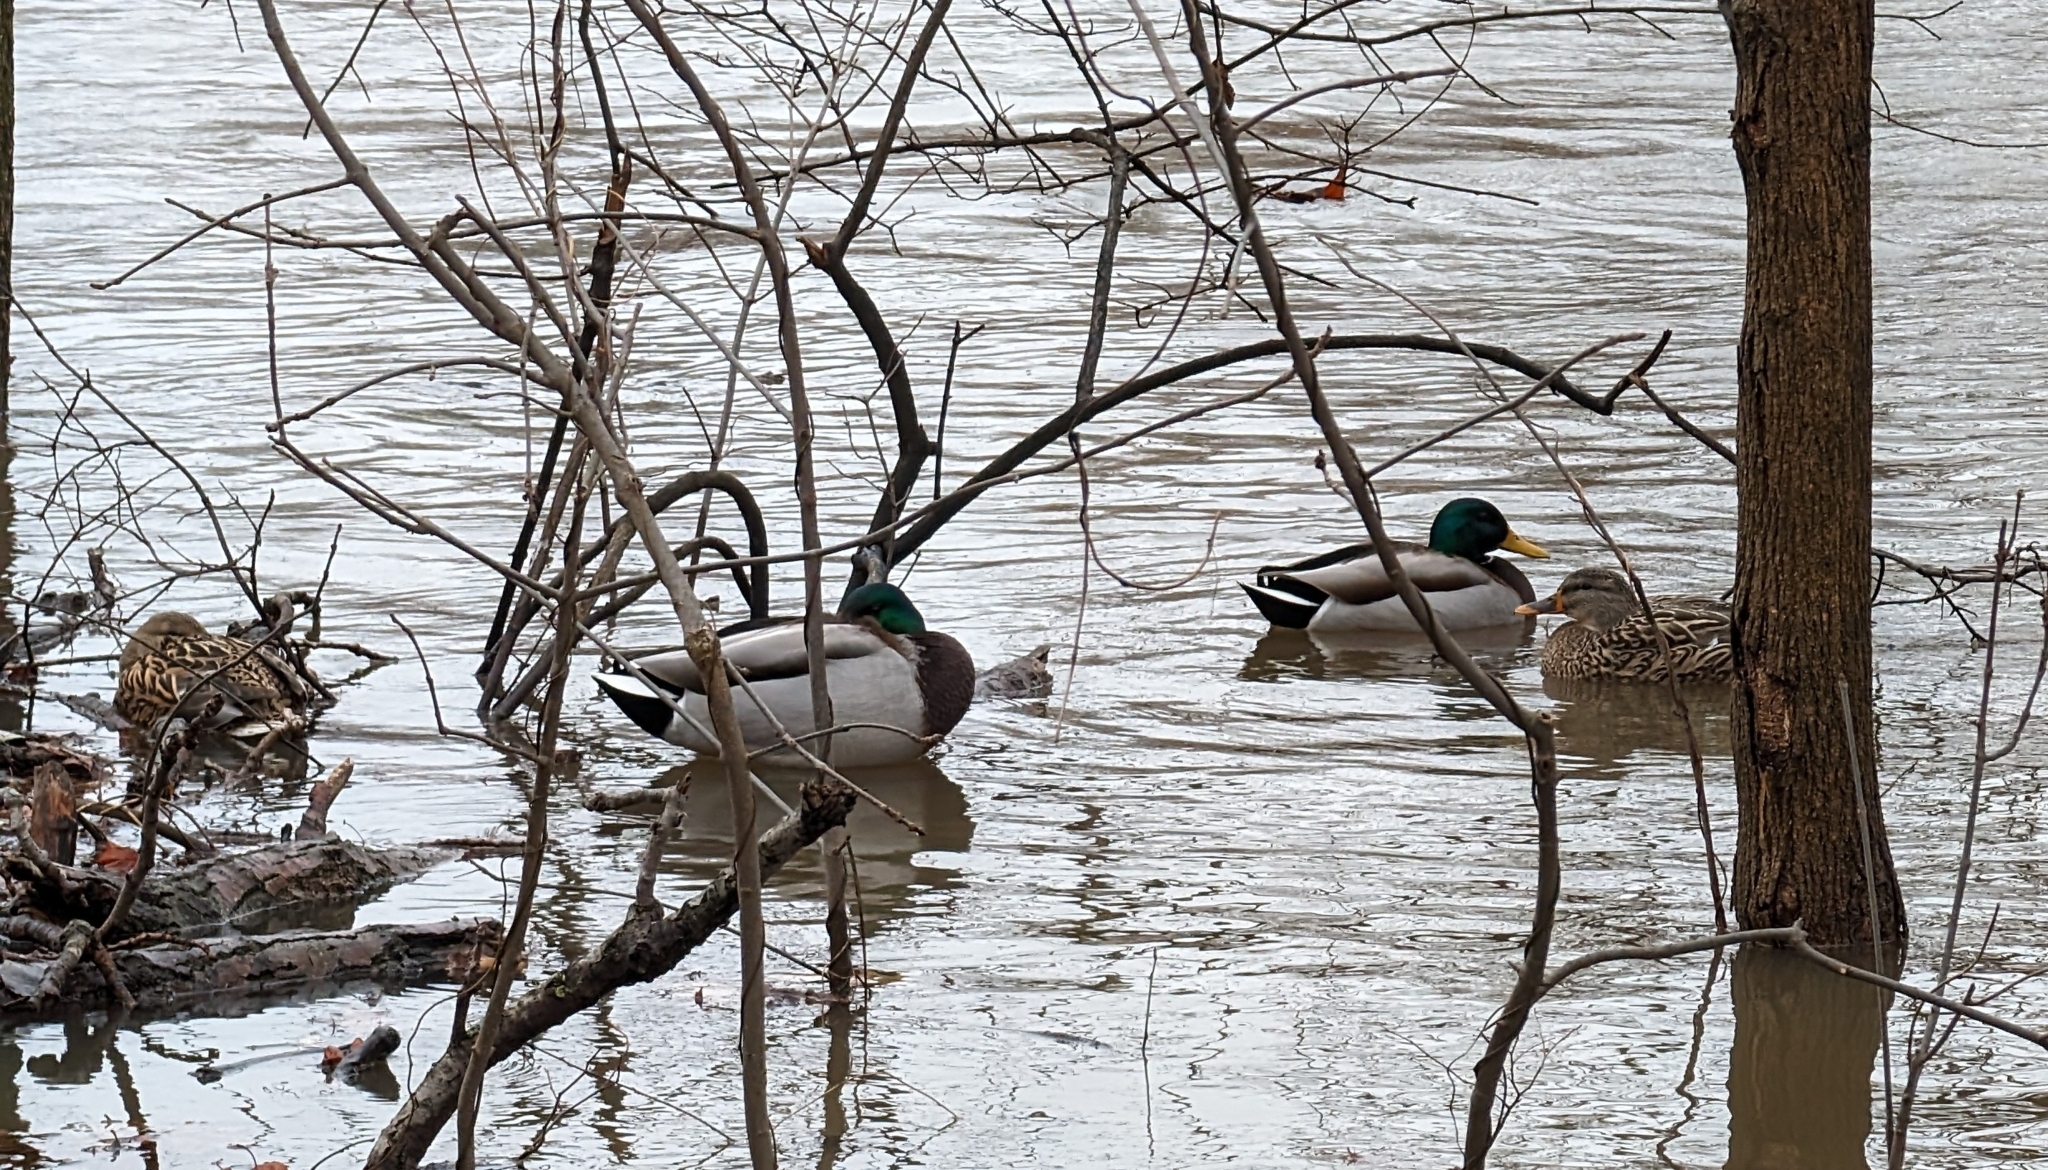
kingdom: Animalia
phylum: Chordata
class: Aves
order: Anseriformes
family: Anatidae
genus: Anas
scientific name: Anas platyrhynchos
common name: Mallard
